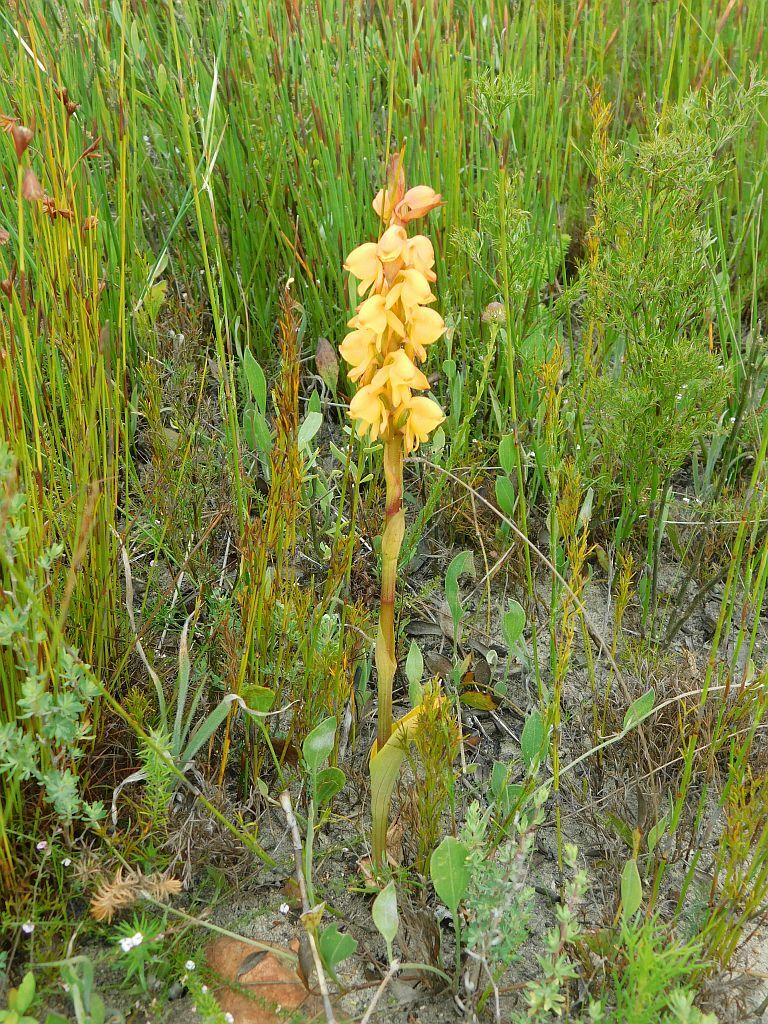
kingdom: Plantae
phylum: Tracheophyta
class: Liliopsida
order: Asparagales
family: Orchidaceae
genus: Satyrium
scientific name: Satyrium coriifolium
